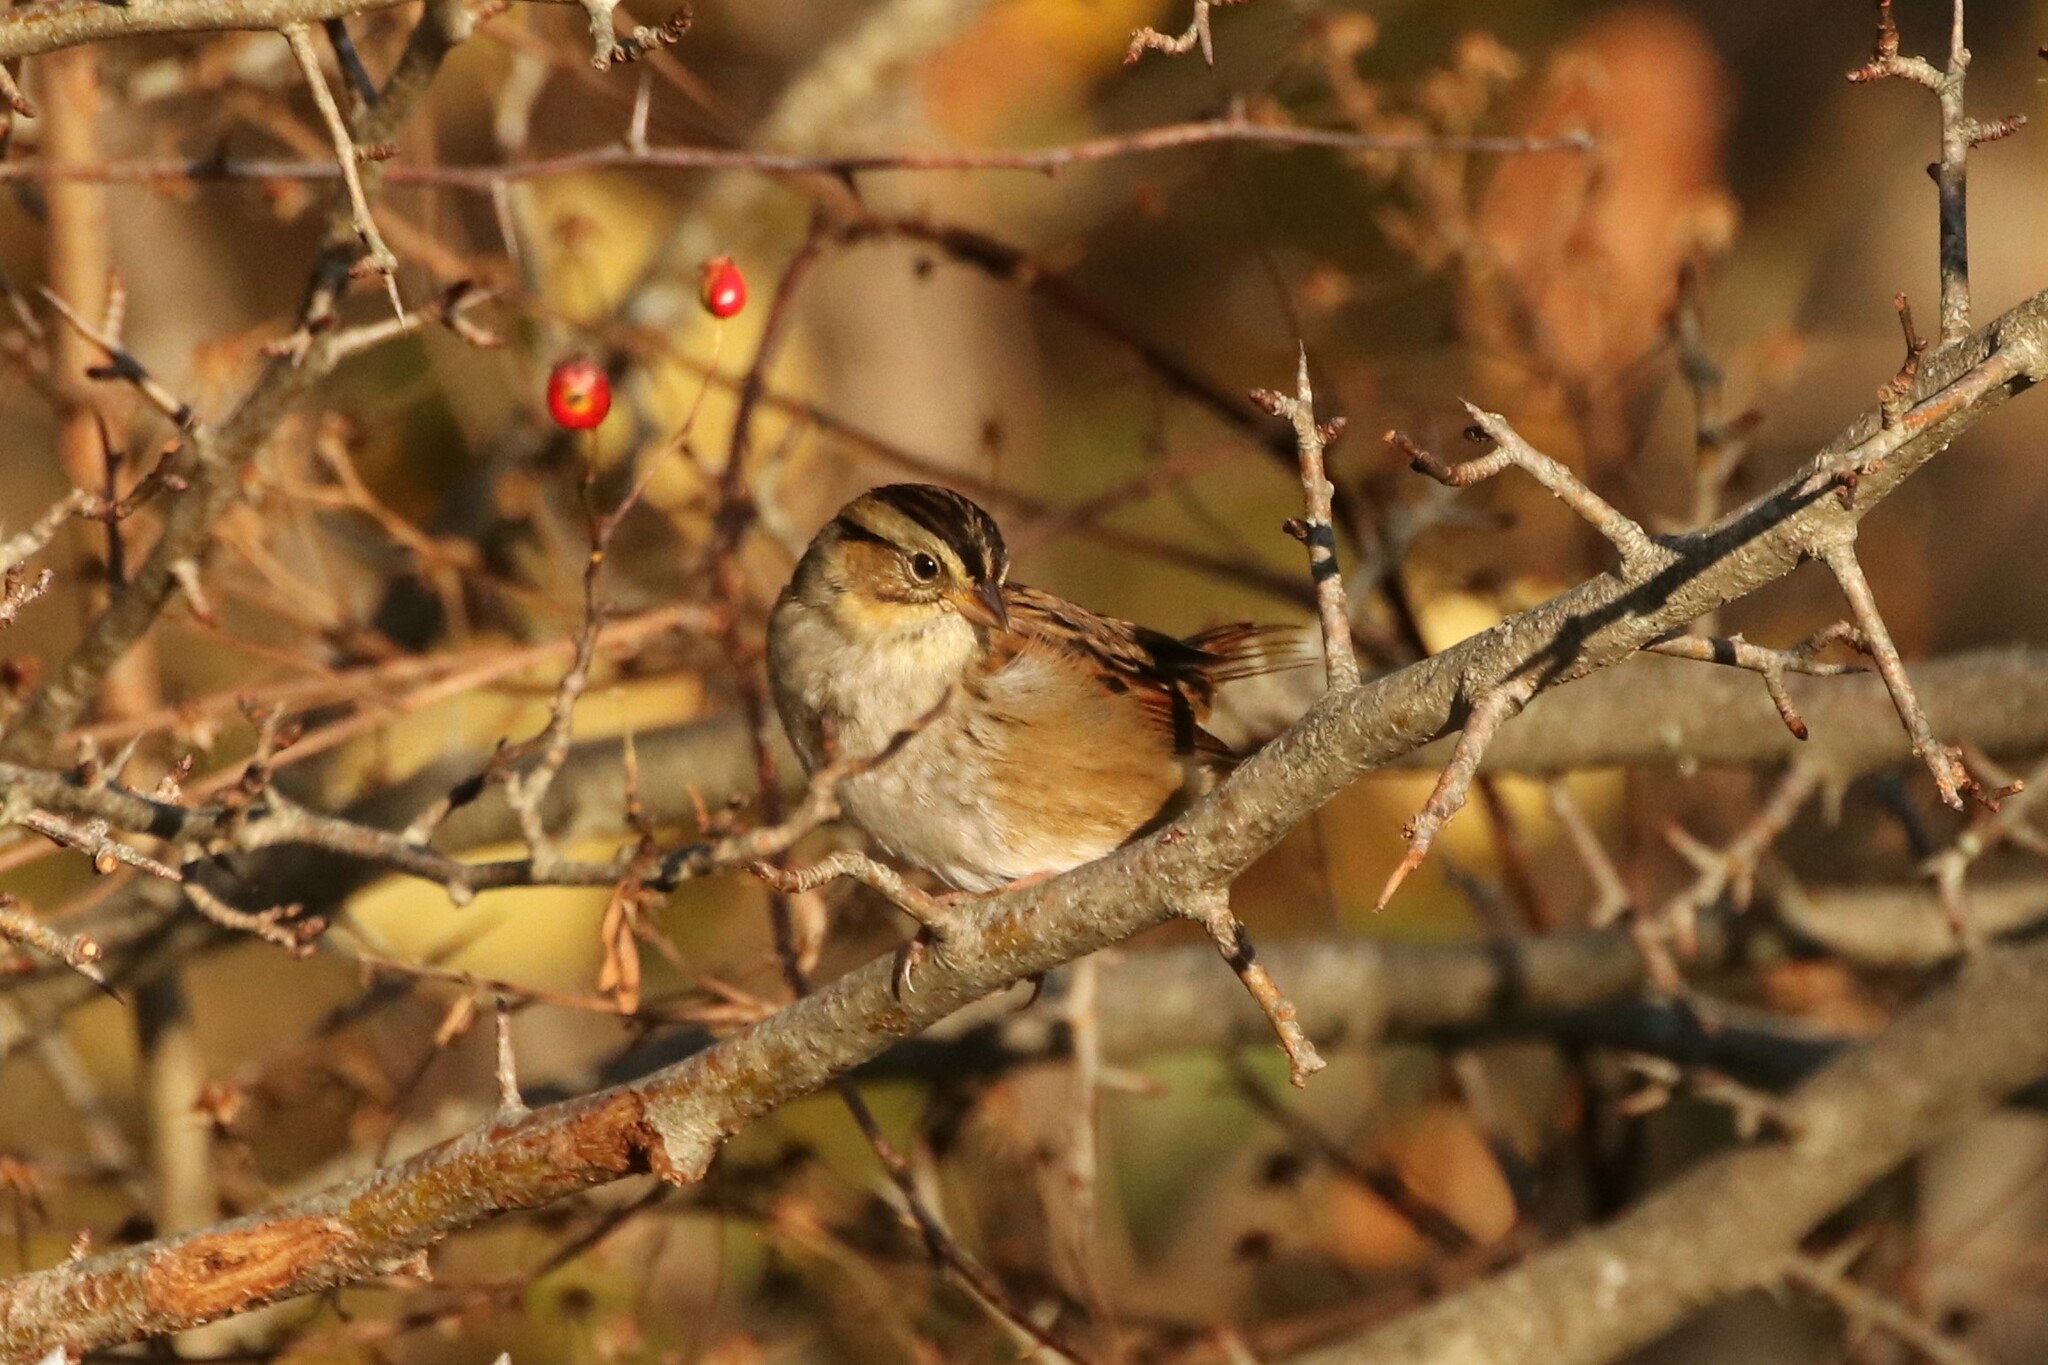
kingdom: Animalia
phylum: Chordata
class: Aves
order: Passeriformes
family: Passerellidae
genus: Melospiza
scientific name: Melospiza georgiana
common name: Swamp sparrow
